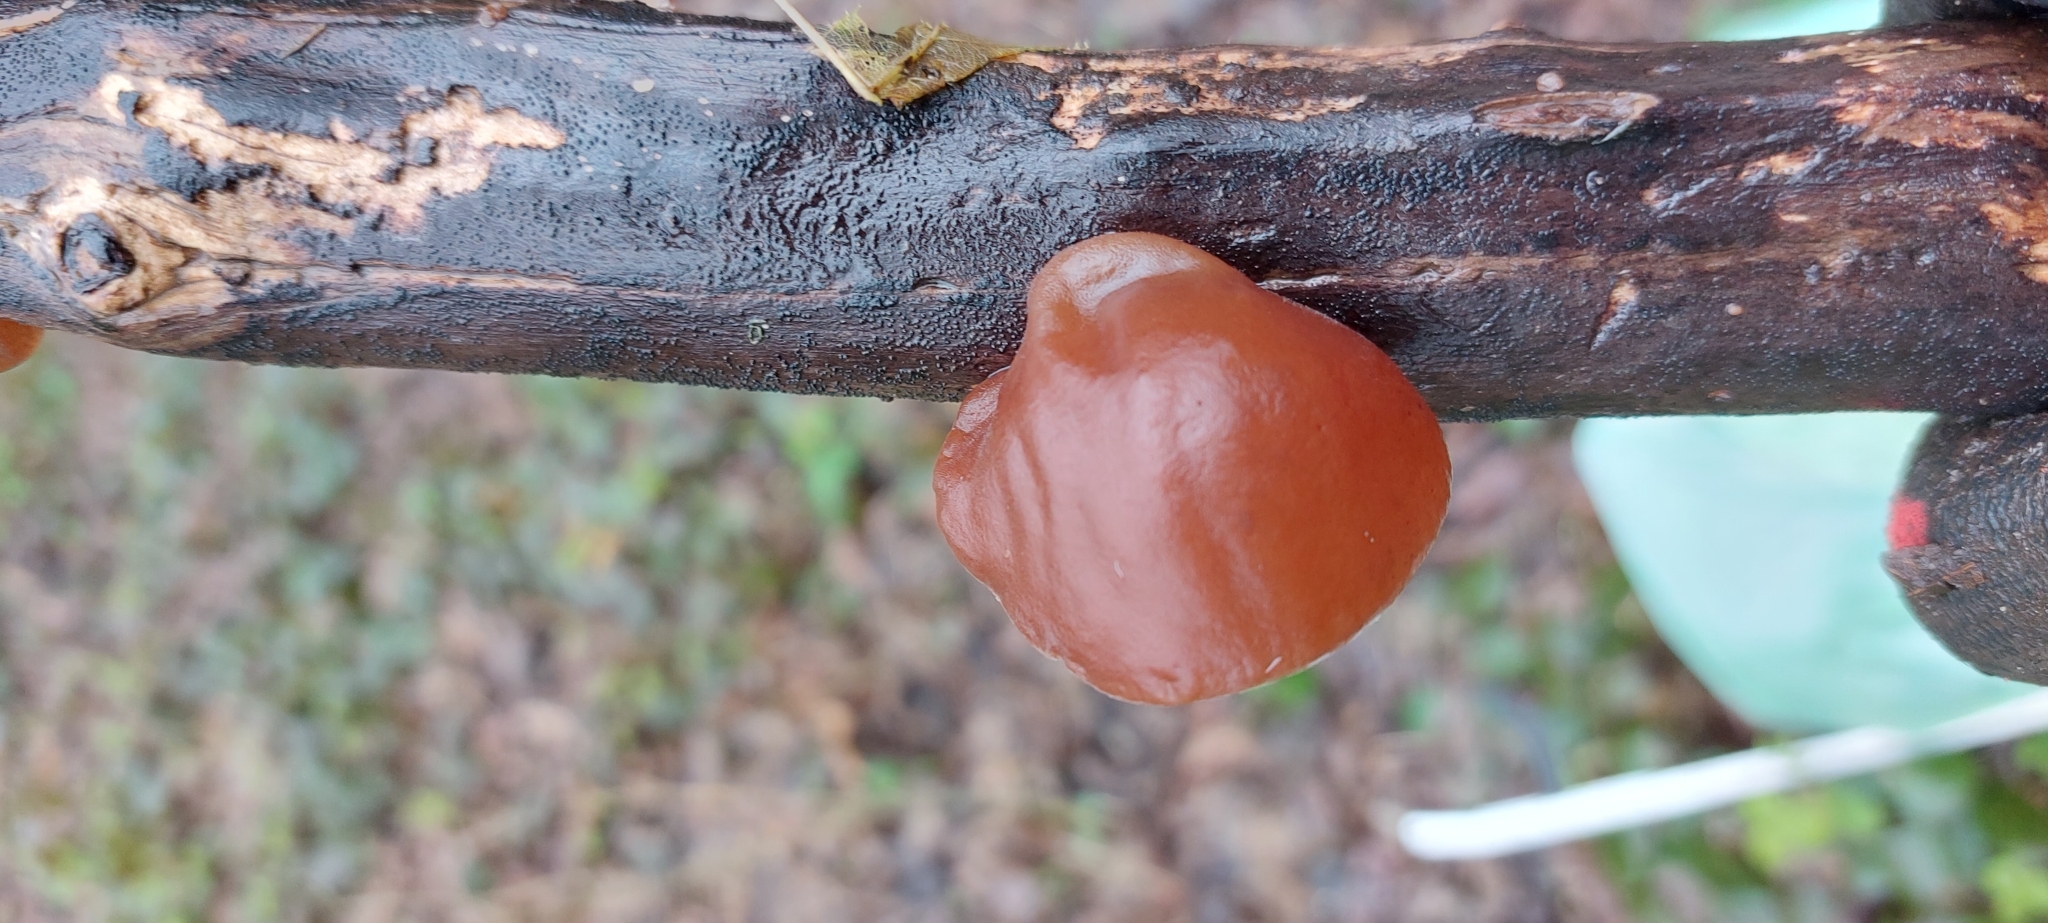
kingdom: Fungi
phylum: Basidiomycota
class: Agaricomycetes
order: Auriculariales
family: Auriculariaceae
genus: Auricularia
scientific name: Auricularia auricula-judae
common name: Jelly ear
